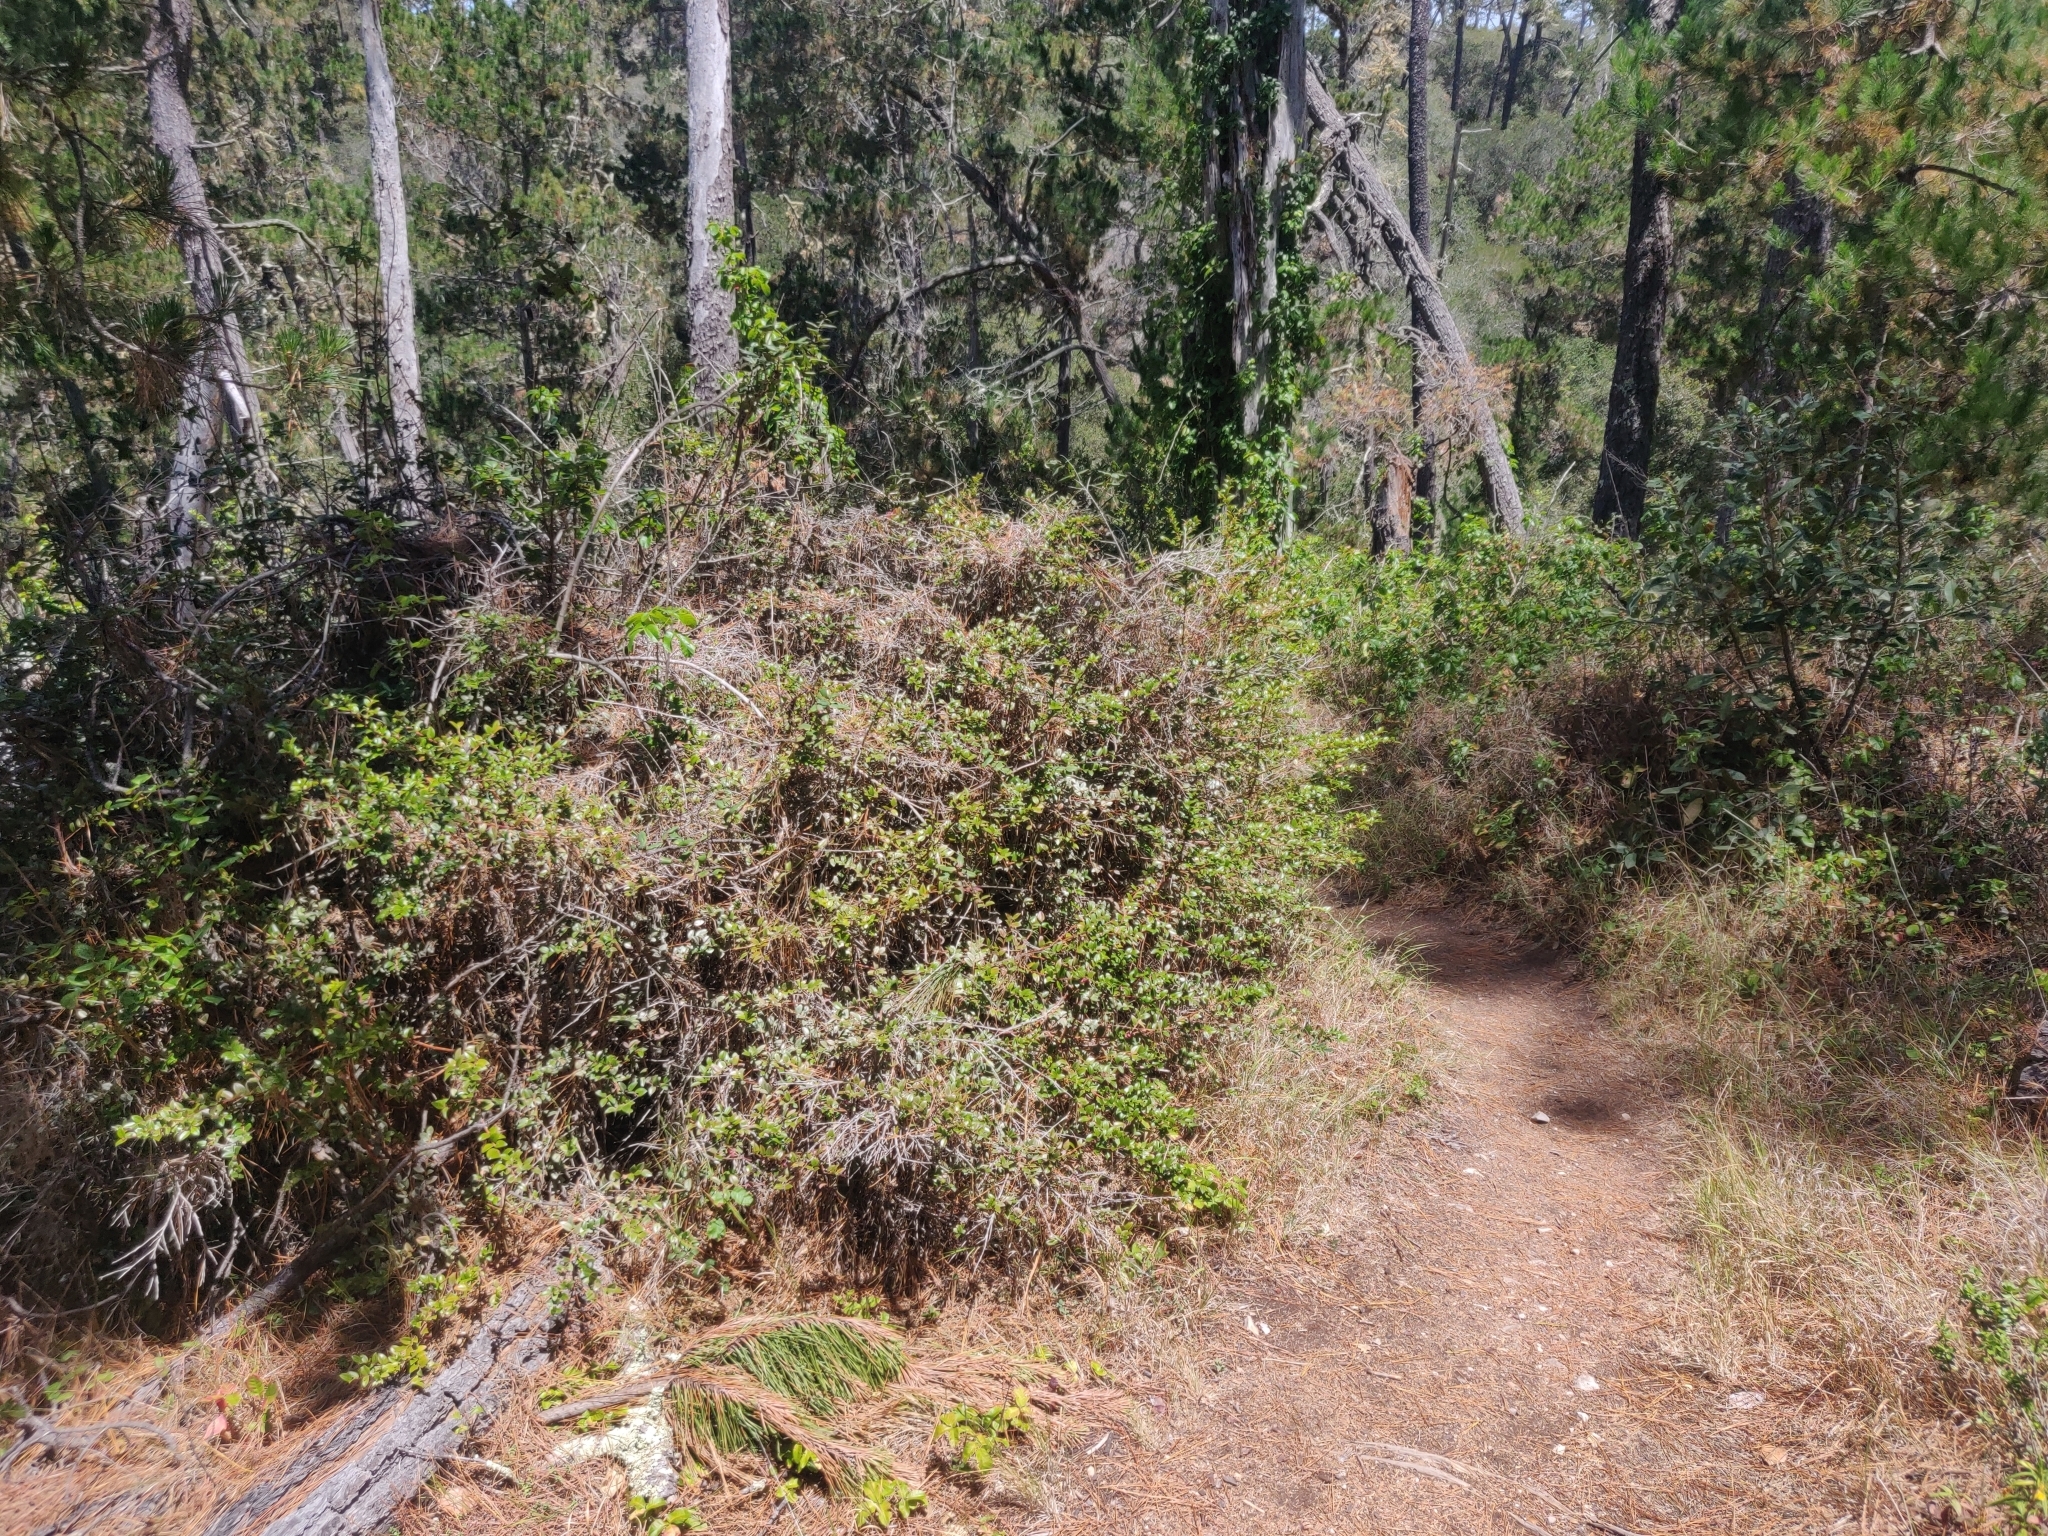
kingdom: Plantae
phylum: Tracheophyta
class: Magnoliopsida
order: Ericales
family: Ericaceae
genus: Vaccinium
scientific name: Vaccinium ovatum
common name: California-huckleberry
